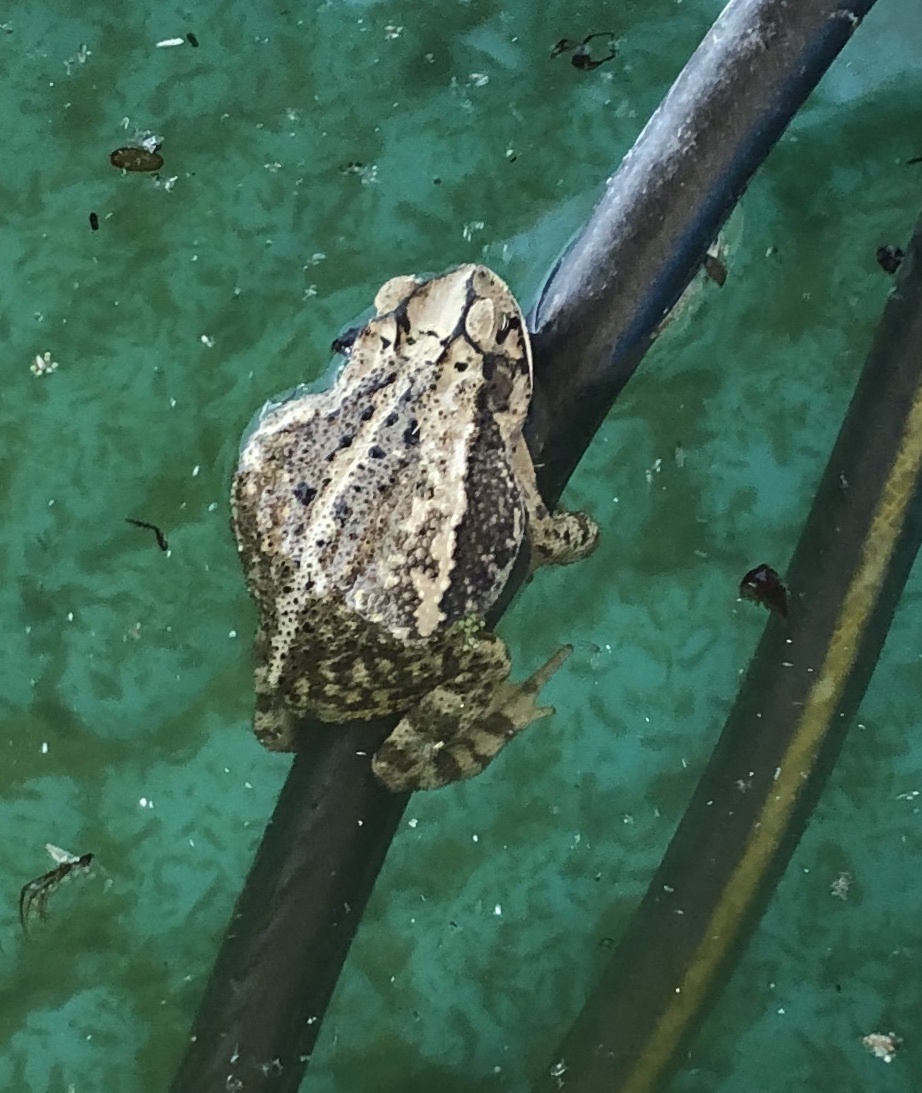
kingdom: Animalia
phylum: Chordata
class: Amphibia
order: Anura
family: Bufonidae
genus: Incilius
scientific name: Incilius nebulifer
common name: Gulf coast toad
